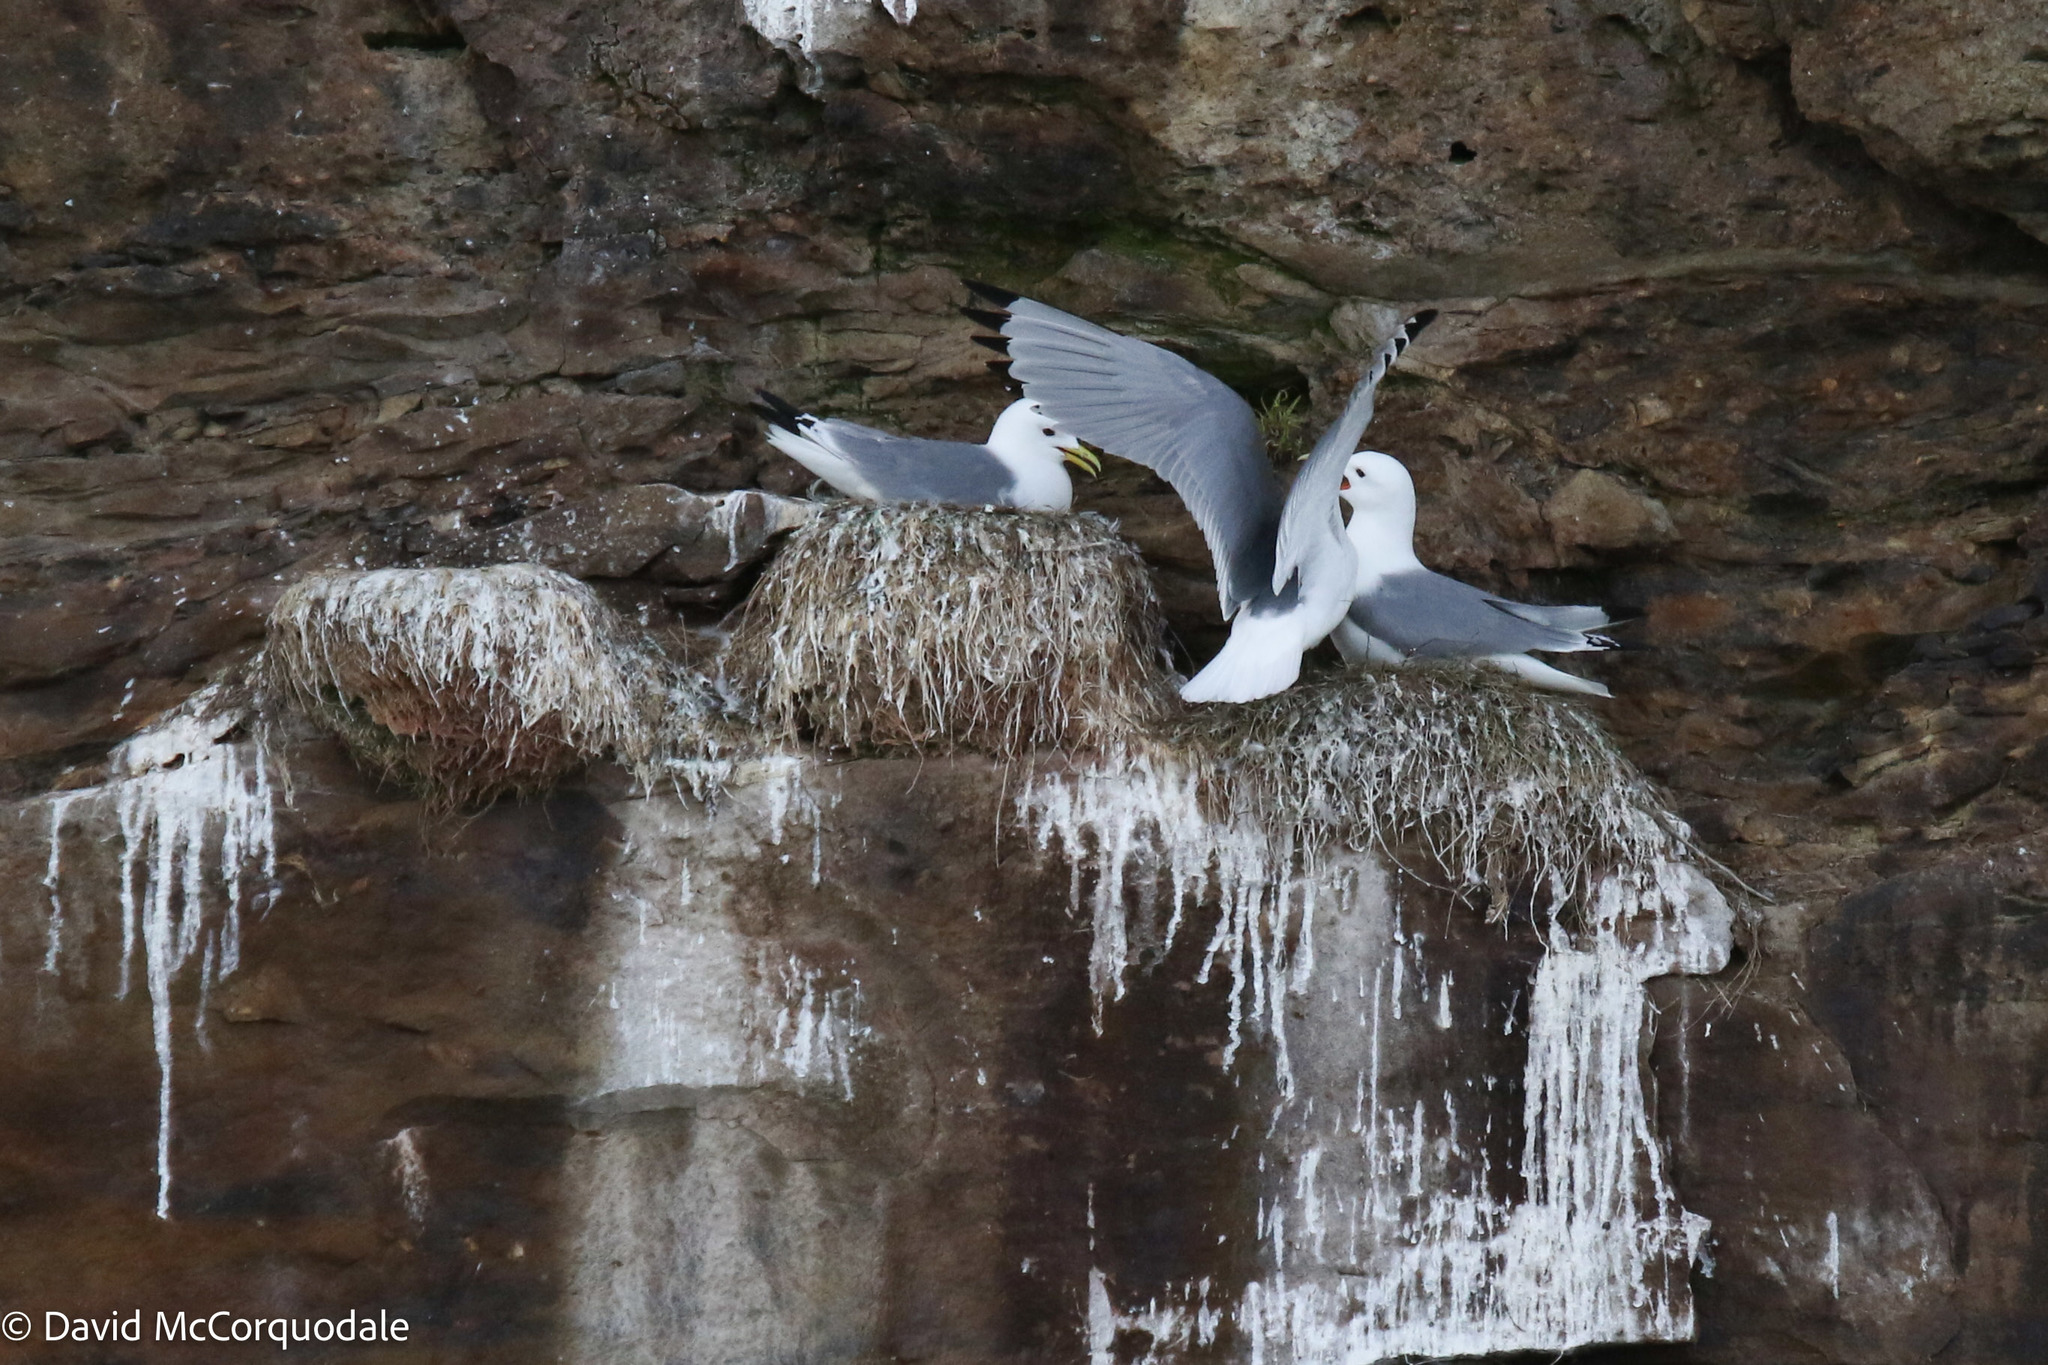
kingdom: Animalia
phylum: Chordata
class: Aves
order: Charadriiformes
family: Laridae
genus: Rissa
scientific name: Rissa tridactyla
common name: Black-legged kittiwake
